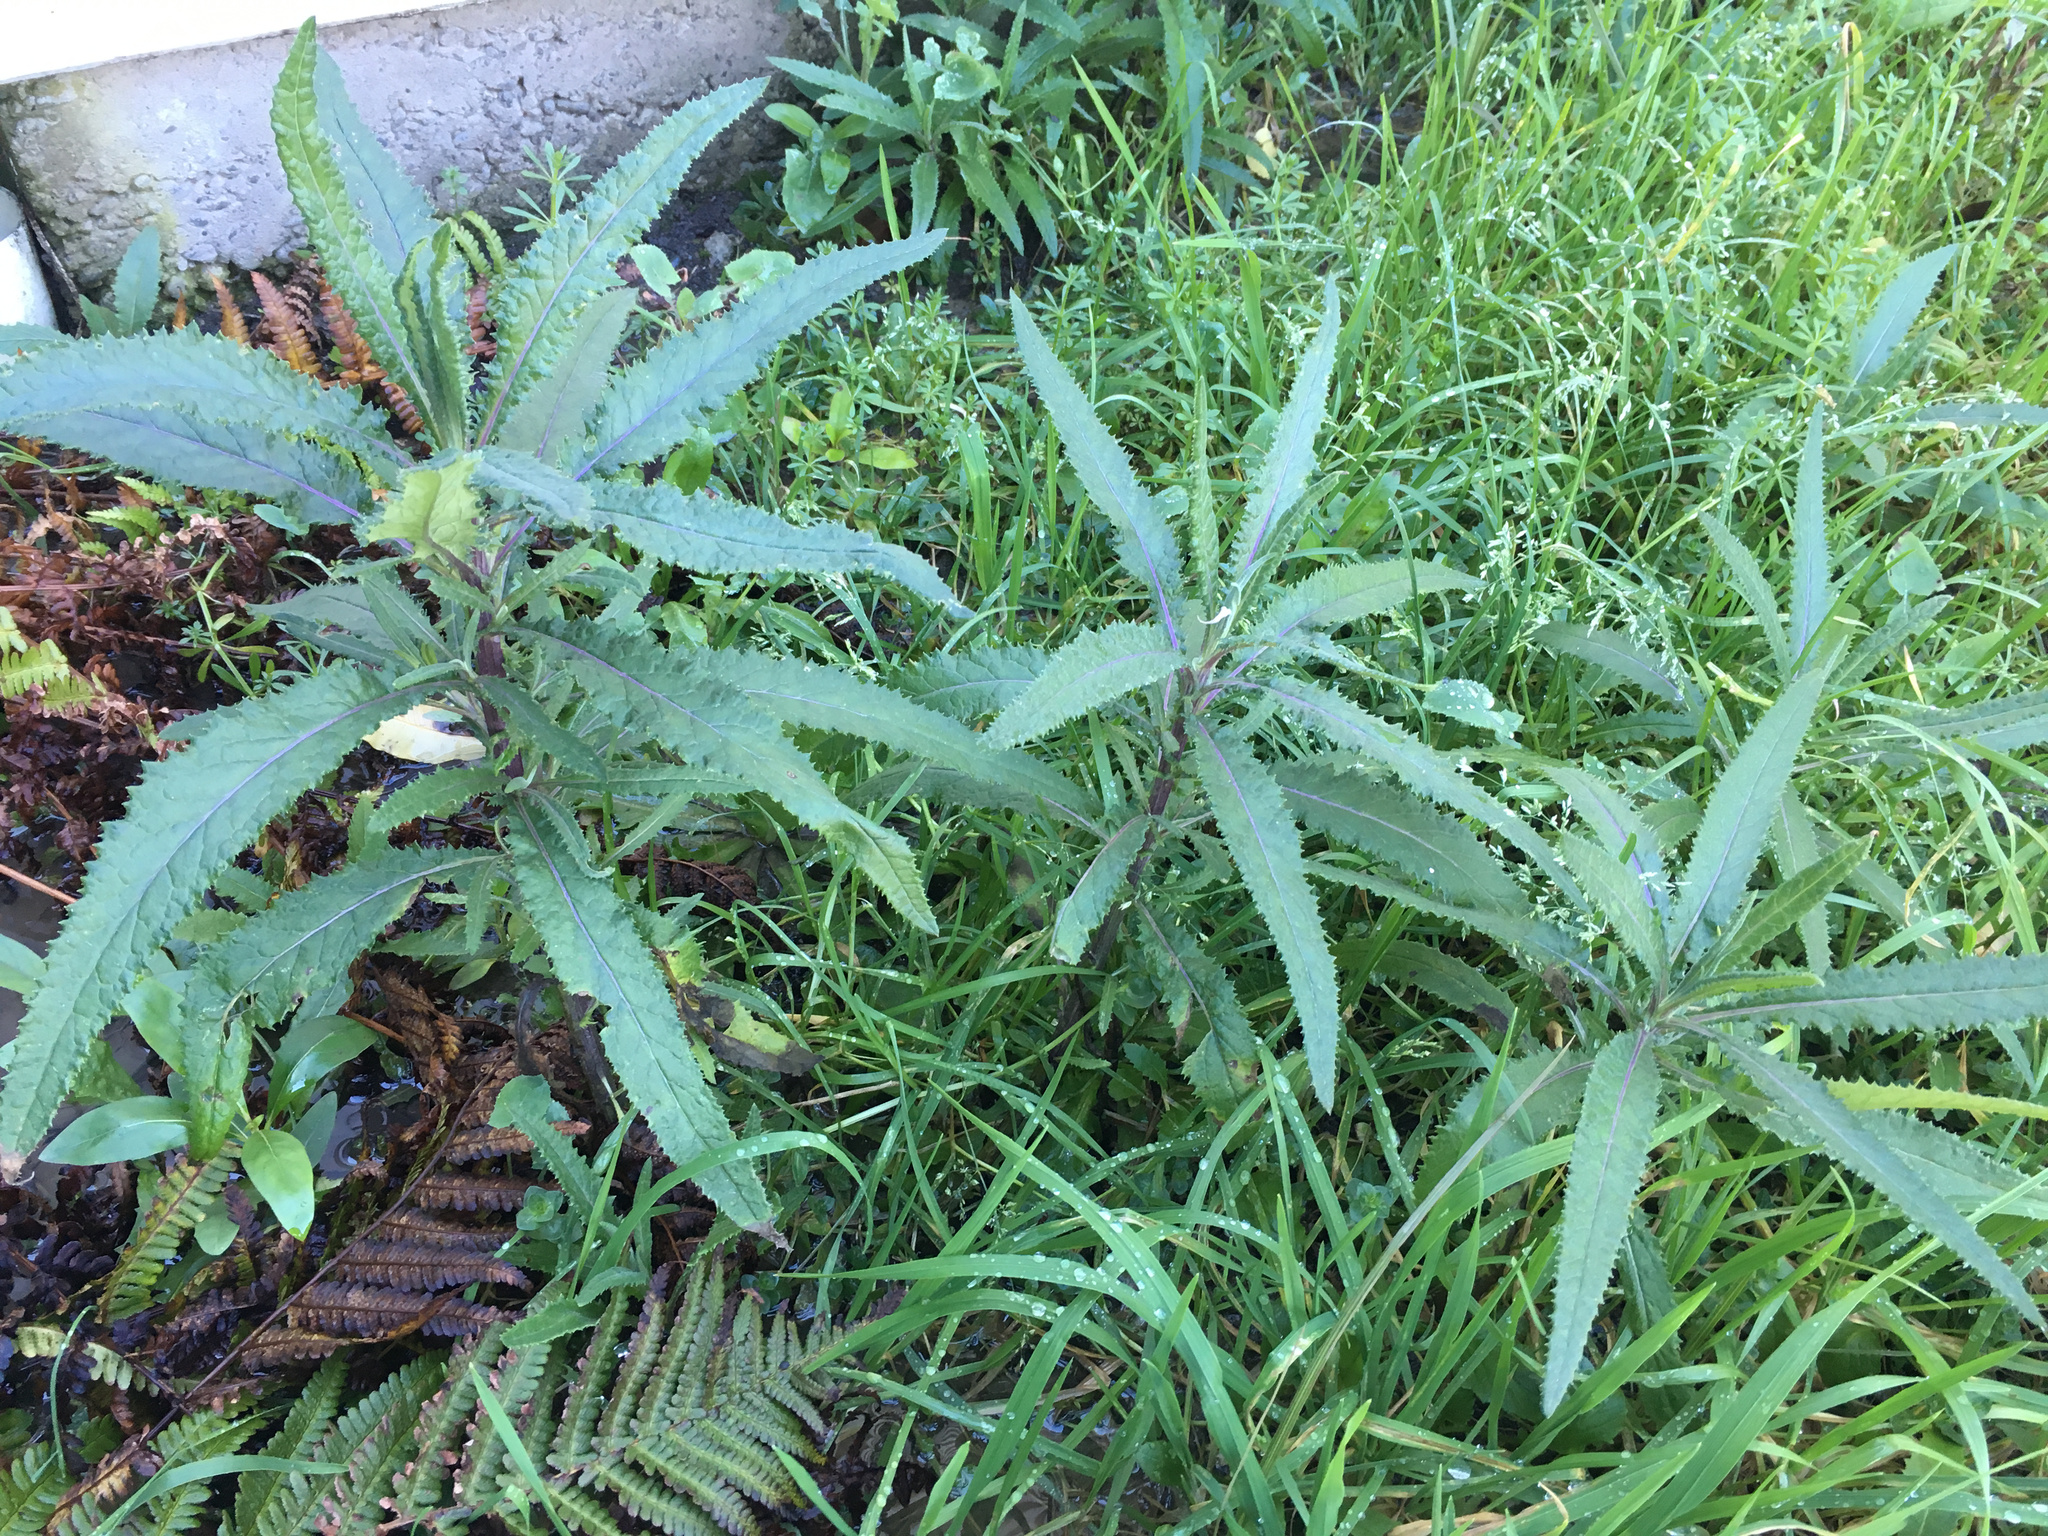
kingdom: Plantae
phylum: Tracheophyta
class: Magnoliopsida
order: Asterales
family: Asteraceae
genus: Senecio
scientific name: Senecio minimus
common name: Toothed fireweed
